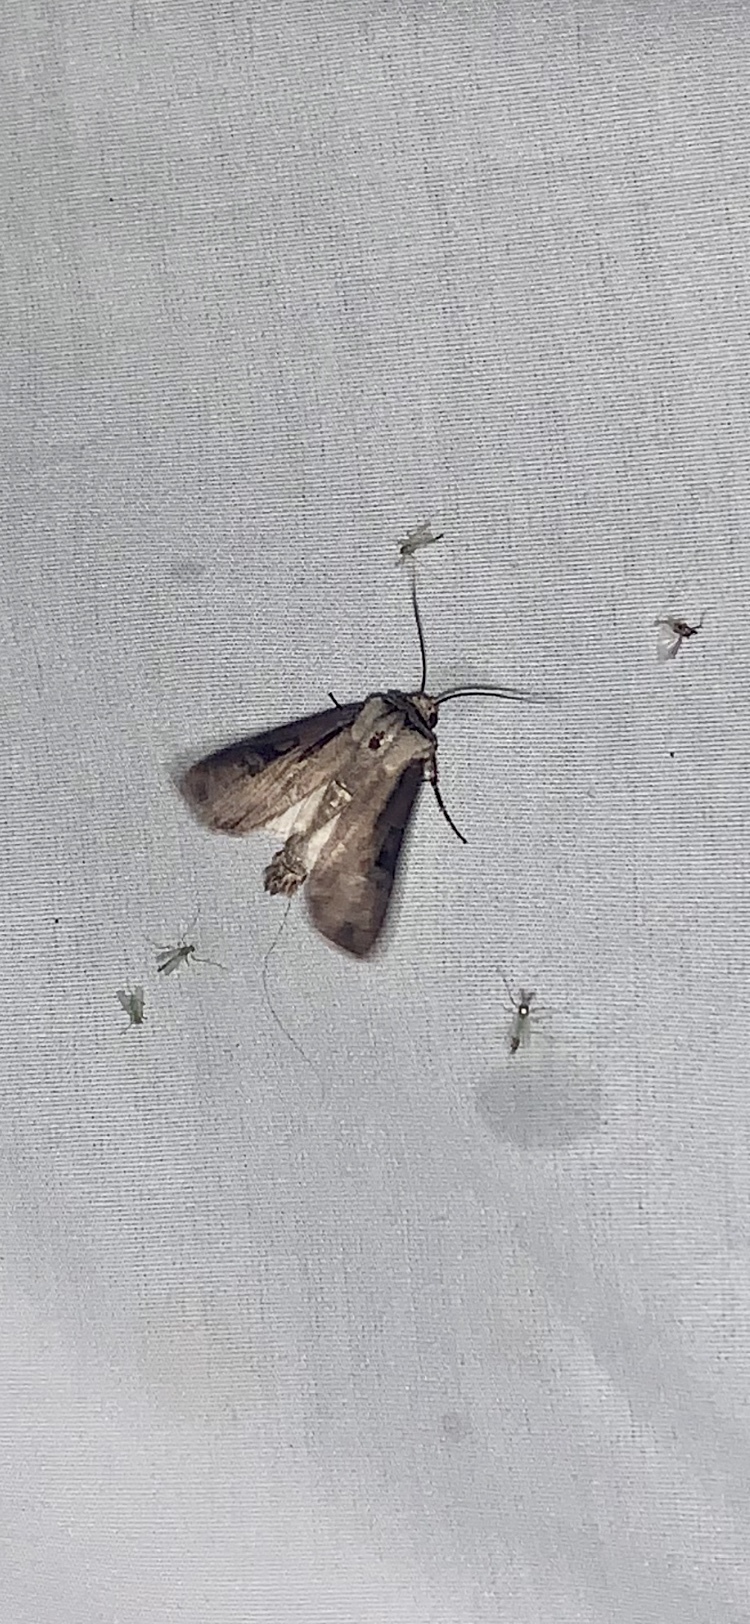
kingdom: Animalia
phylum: Arthropoda
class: Insecta
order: Lepidoptera
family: Noctuidae
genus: Agrotis
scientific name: Agrotis volubilis
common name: Voluble dart
